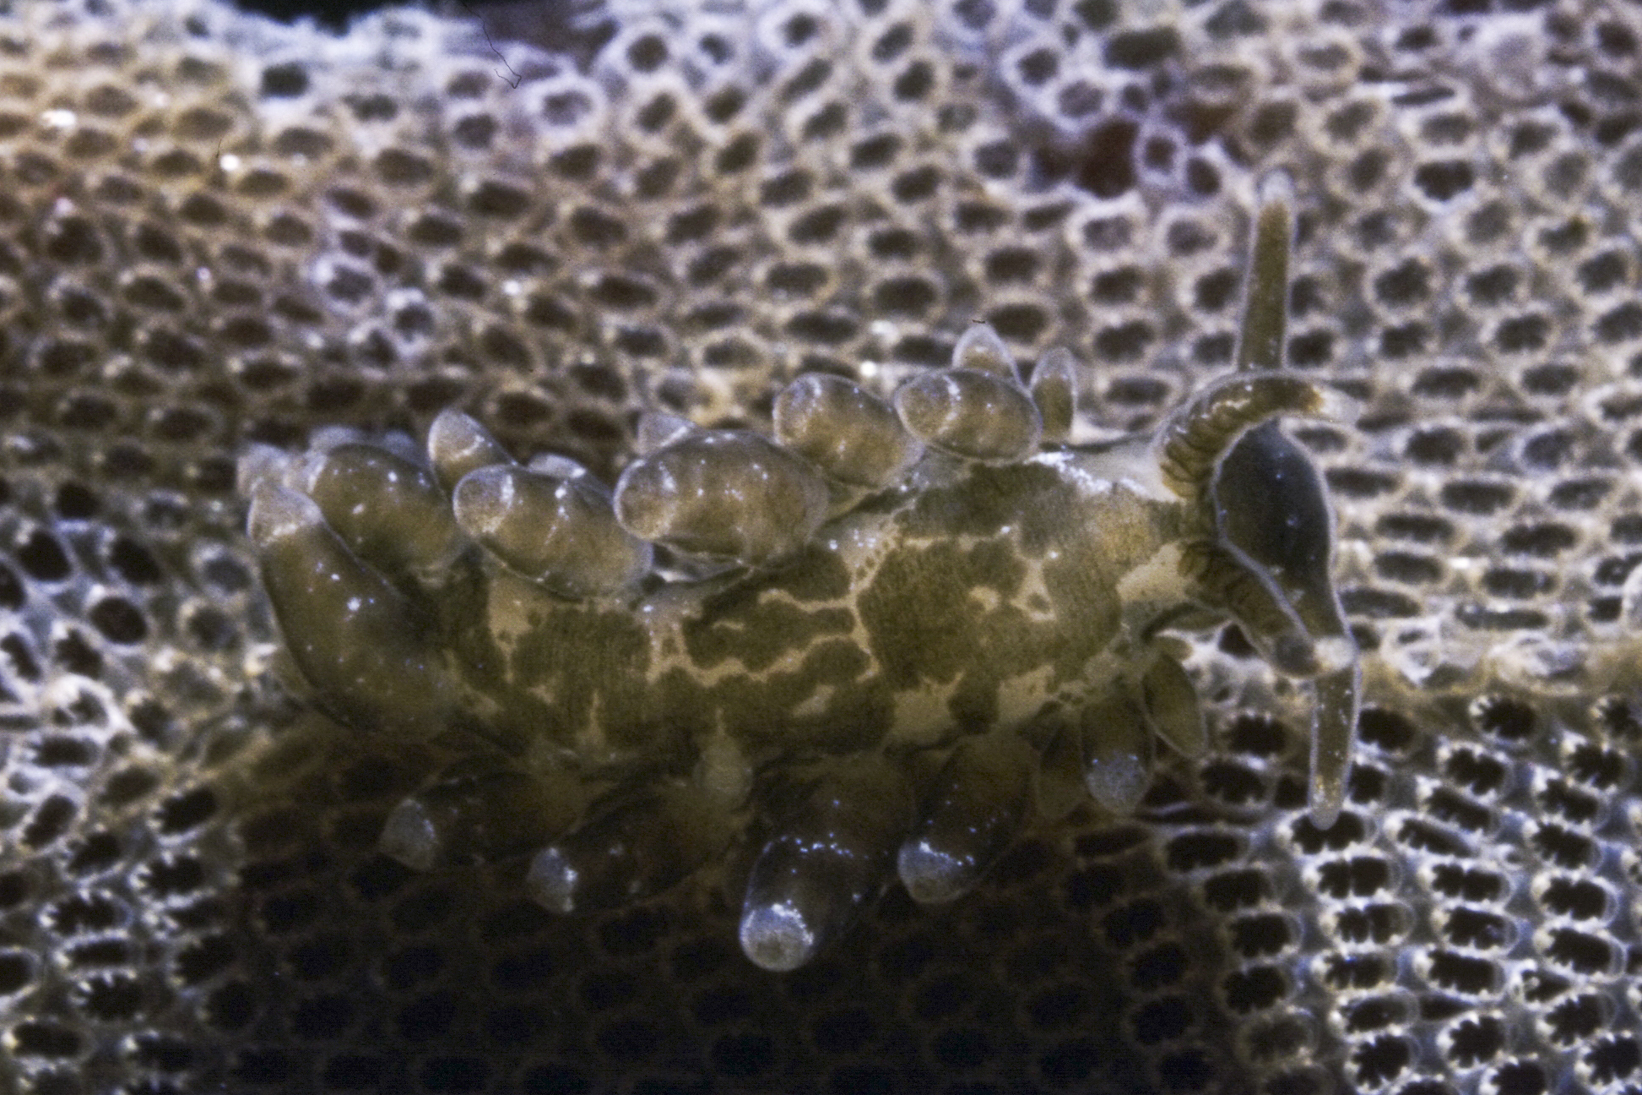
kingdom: Animalia
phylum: Mollusca
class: Gastropoda
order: Nudibranchia
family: Eubranchidae
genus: Amphorina
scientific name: Amphorina viriola
